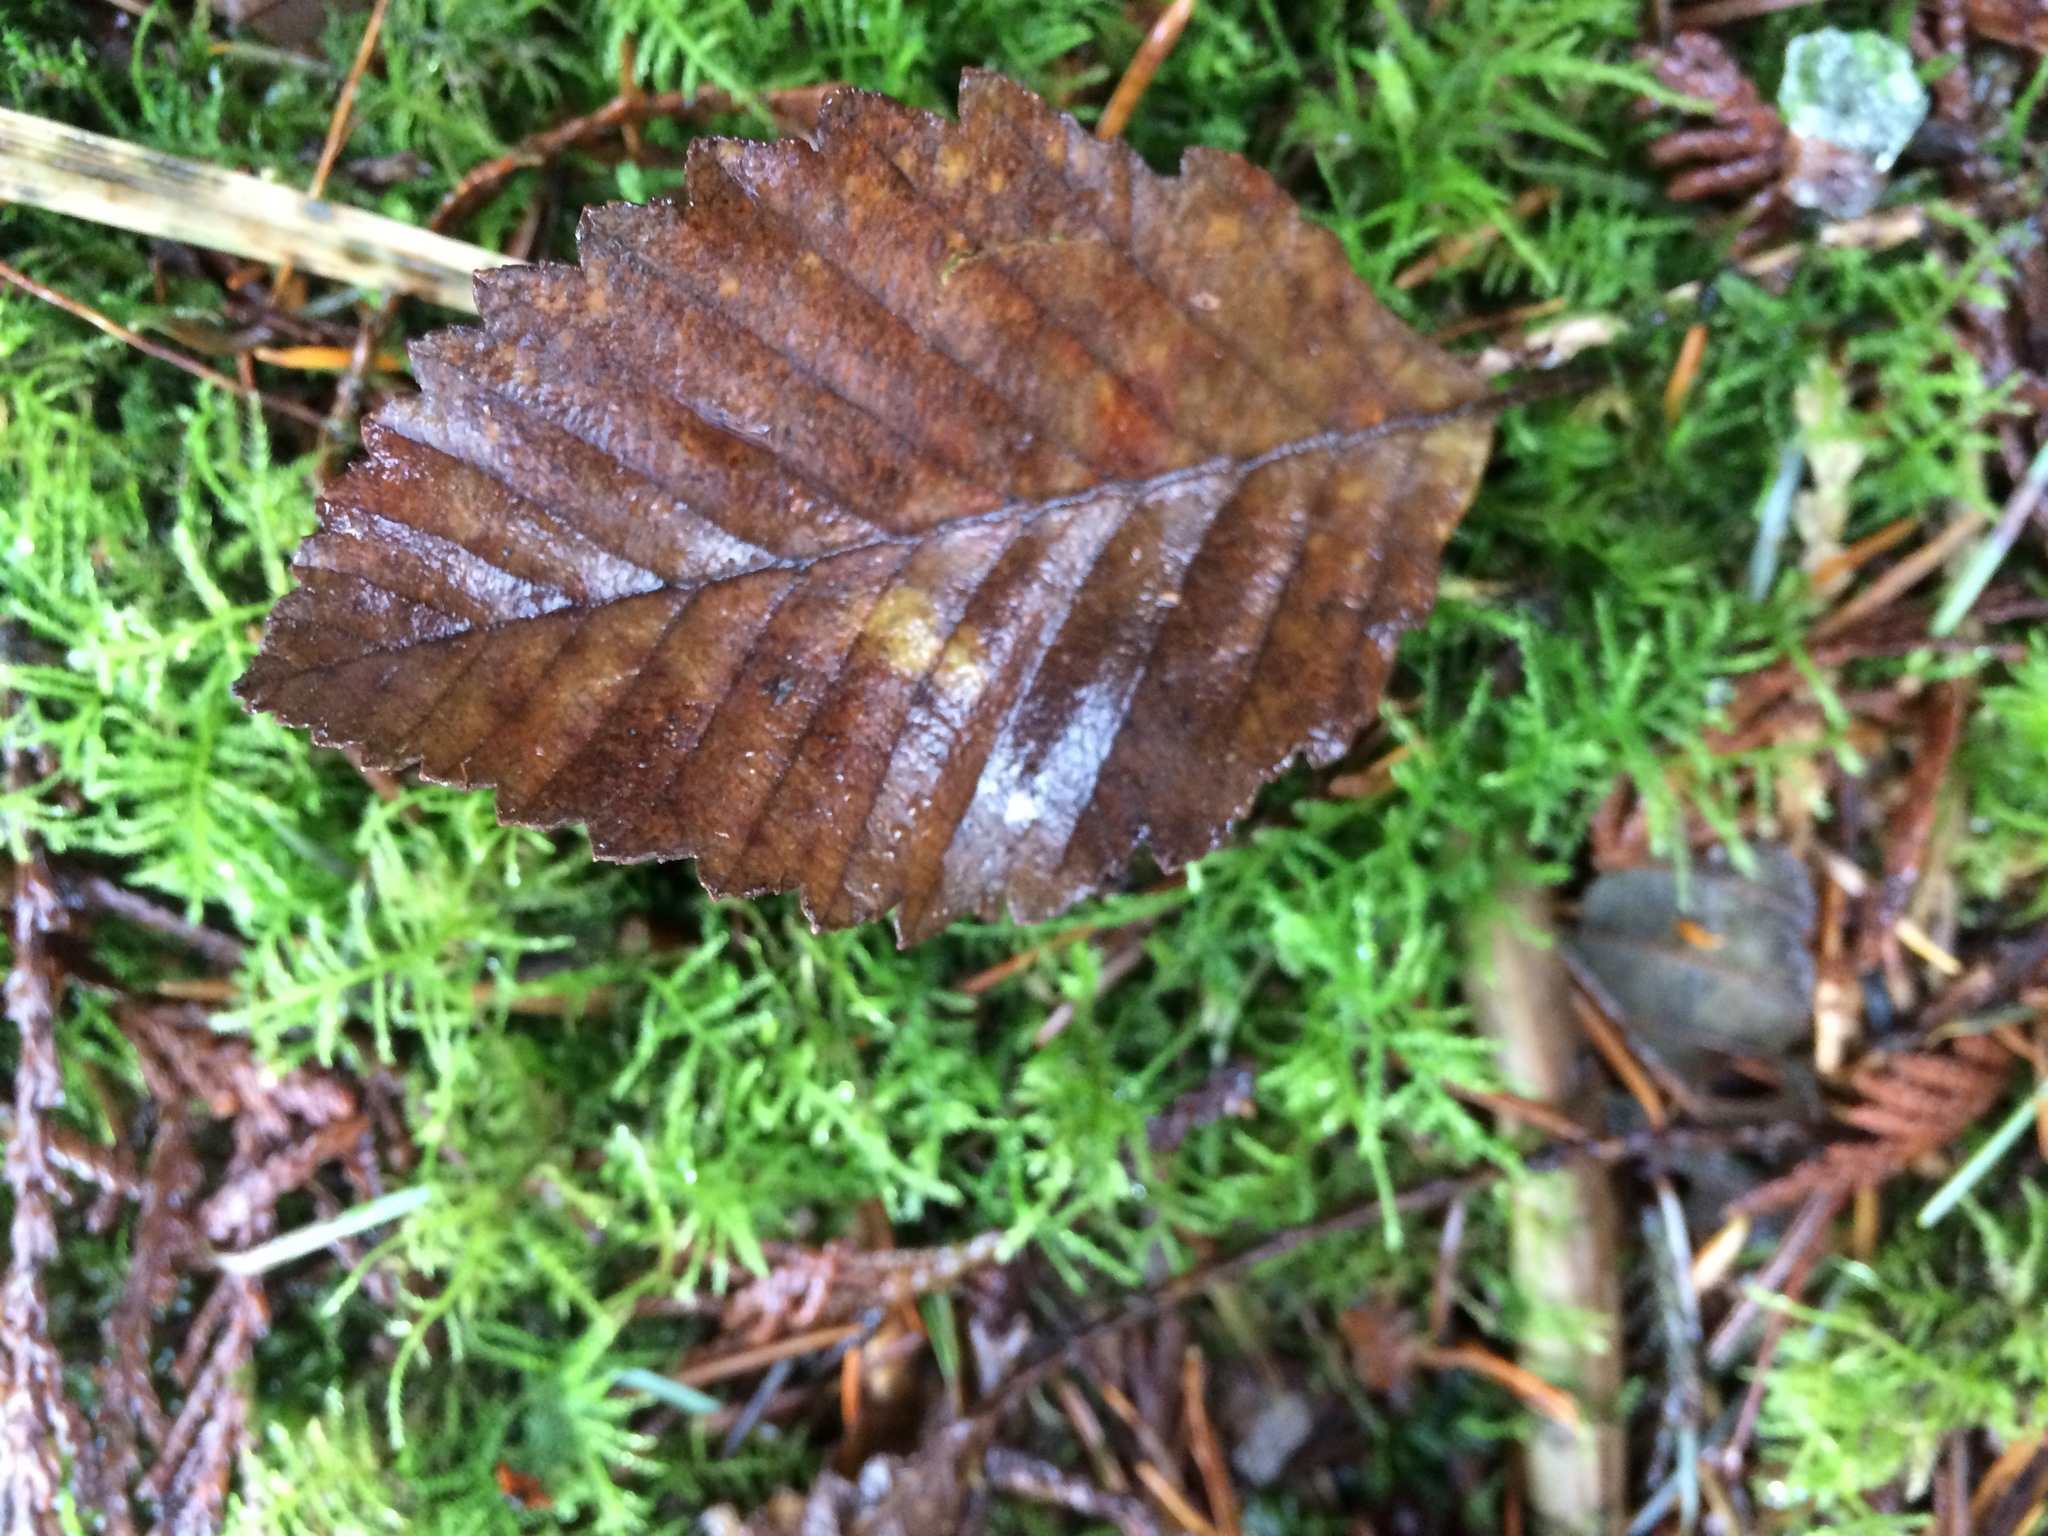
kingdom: Plantae
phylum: Tracheophyta
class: Magnoliopsida
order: Fagales
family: Betulaceae
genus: Alnus
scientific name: Alnus rubra
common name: Red alder
